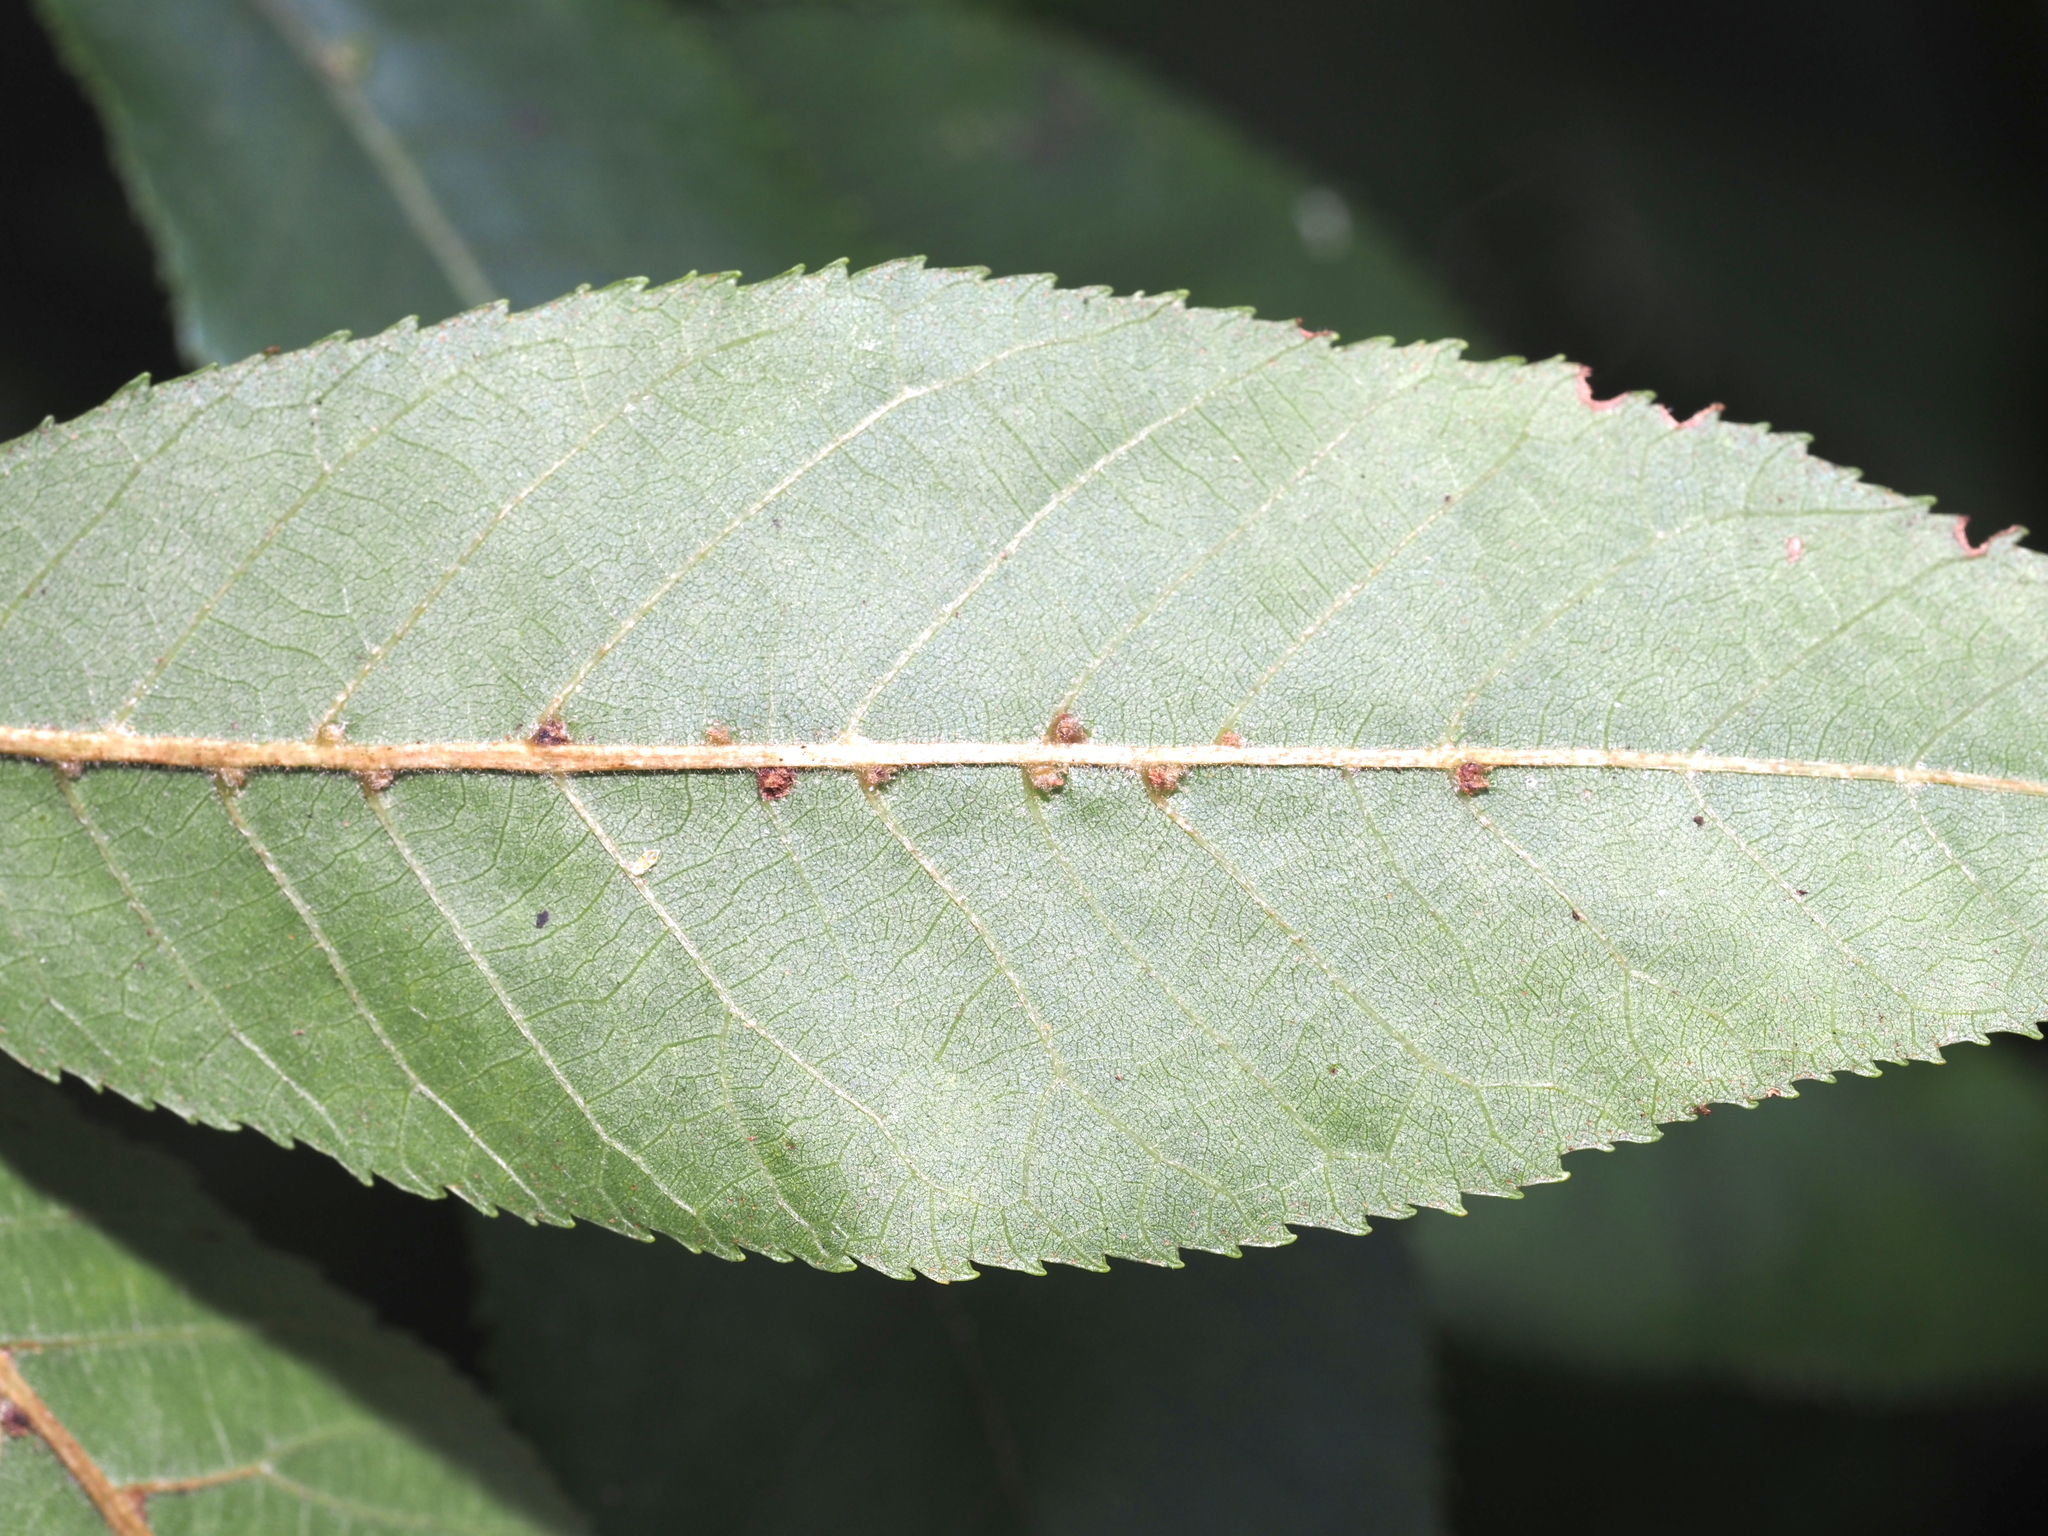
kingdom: Animalia
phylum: Arthropoda
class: Arachnida
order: Trombidiformes
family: Eriophyidae
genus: Aceria
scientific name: Aceria
